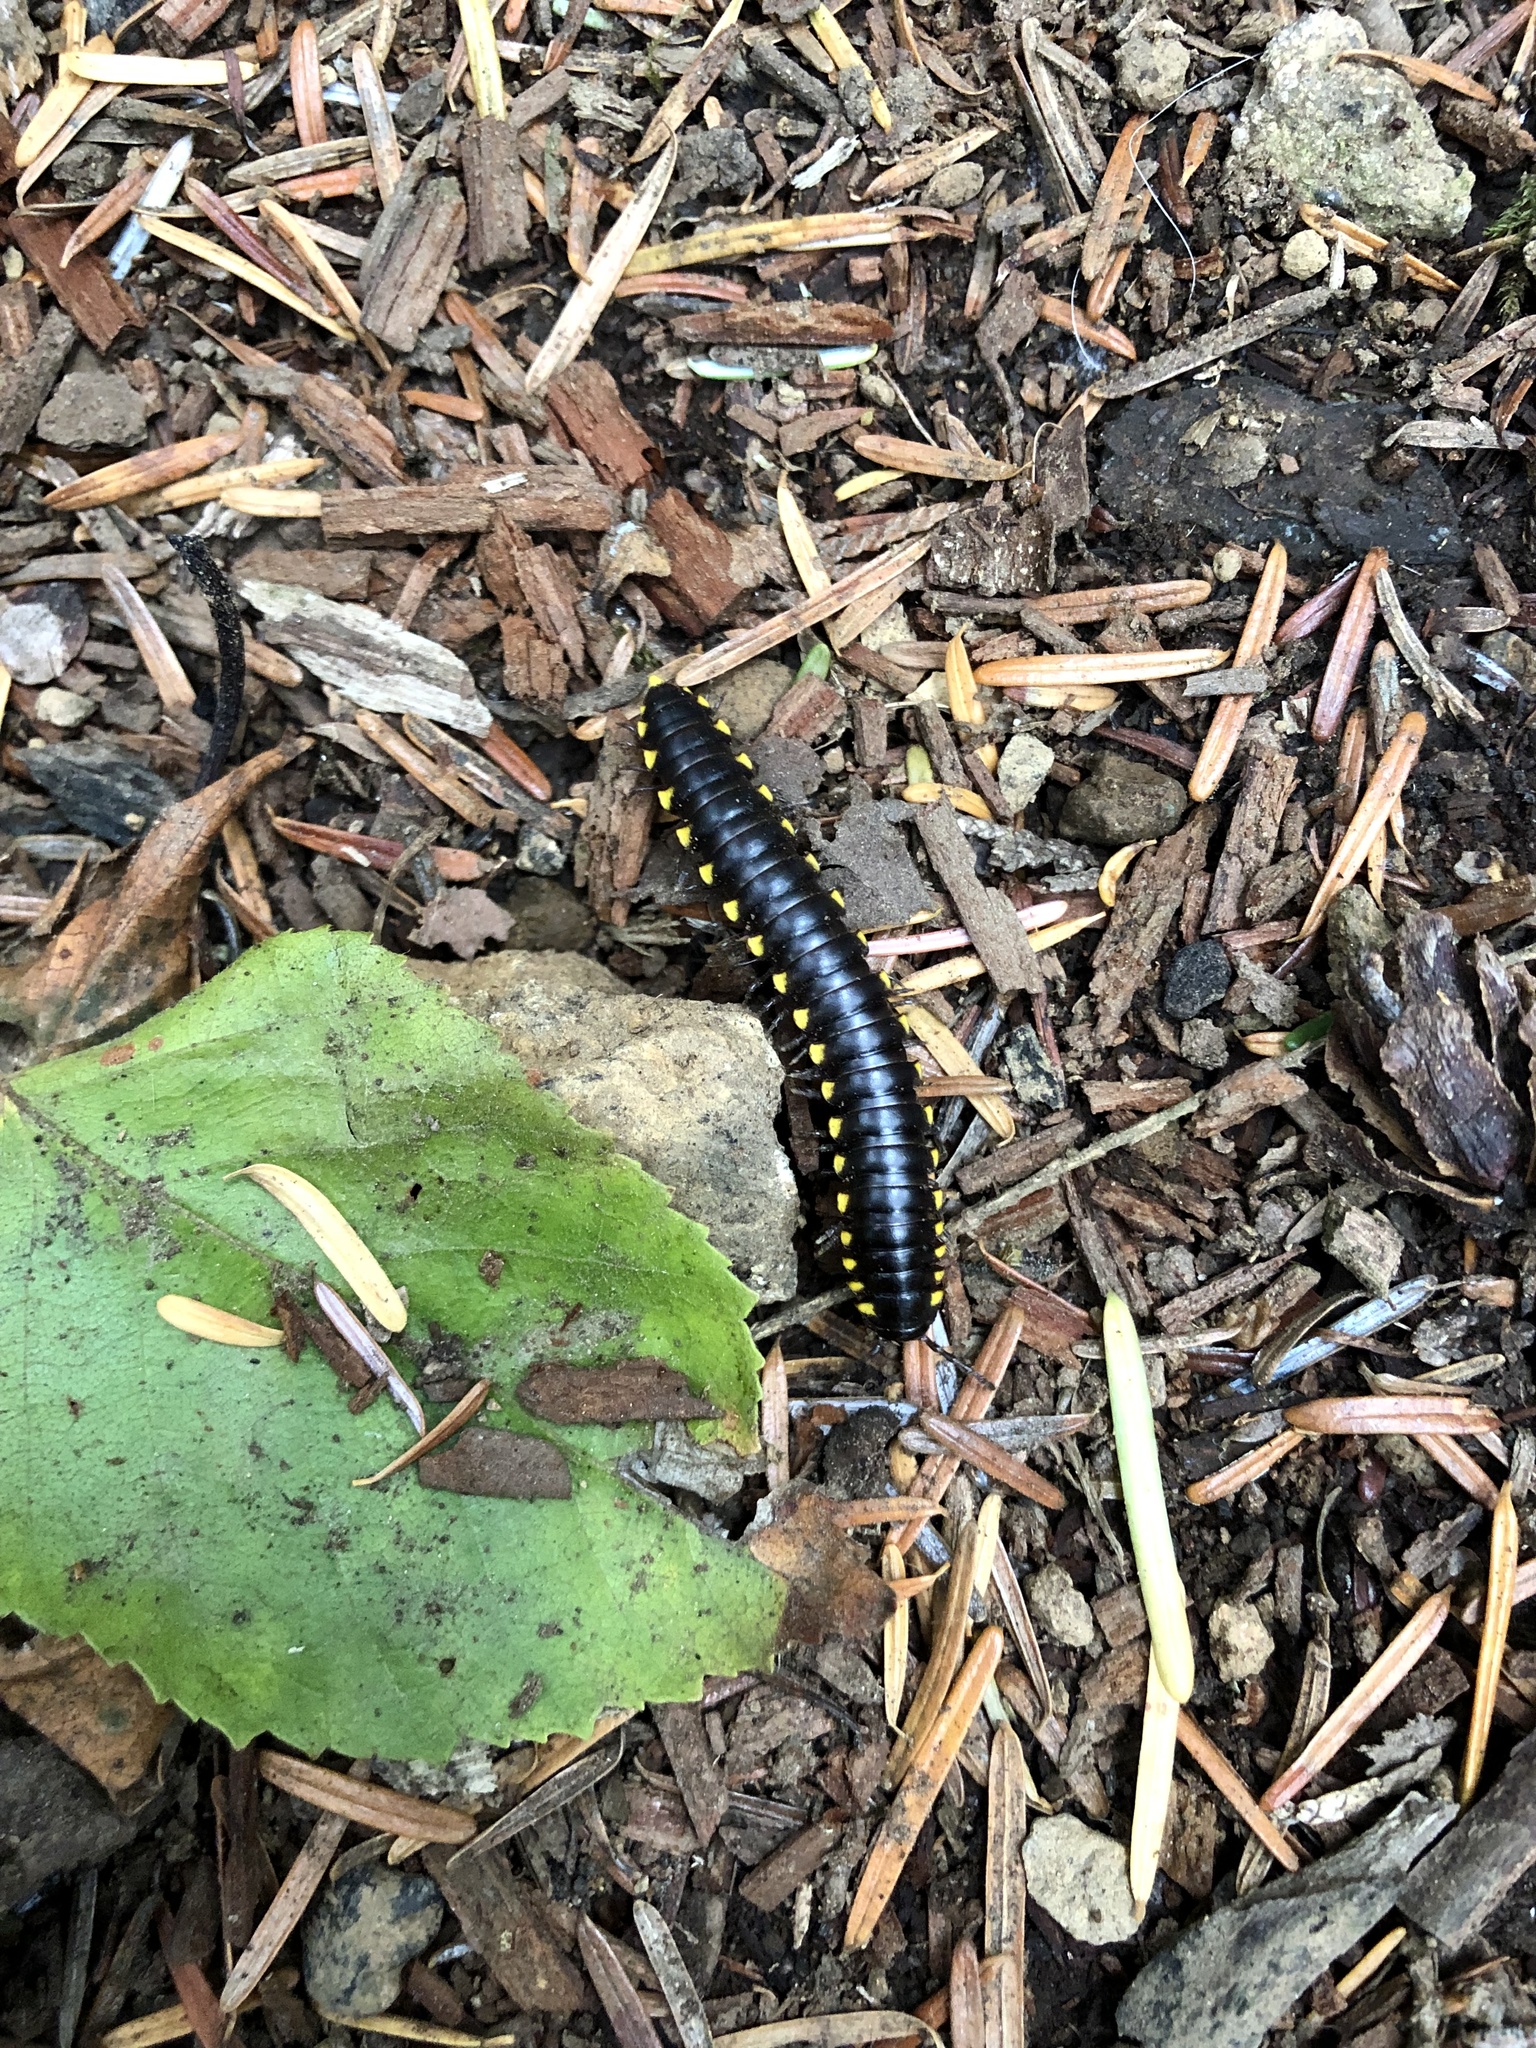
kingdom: Animalia
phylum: Arthropoda
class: Diplopoda
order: Polydesmida
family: Xystodesmidae
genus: Harpaphe
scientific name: Harpaphe haydeniana
